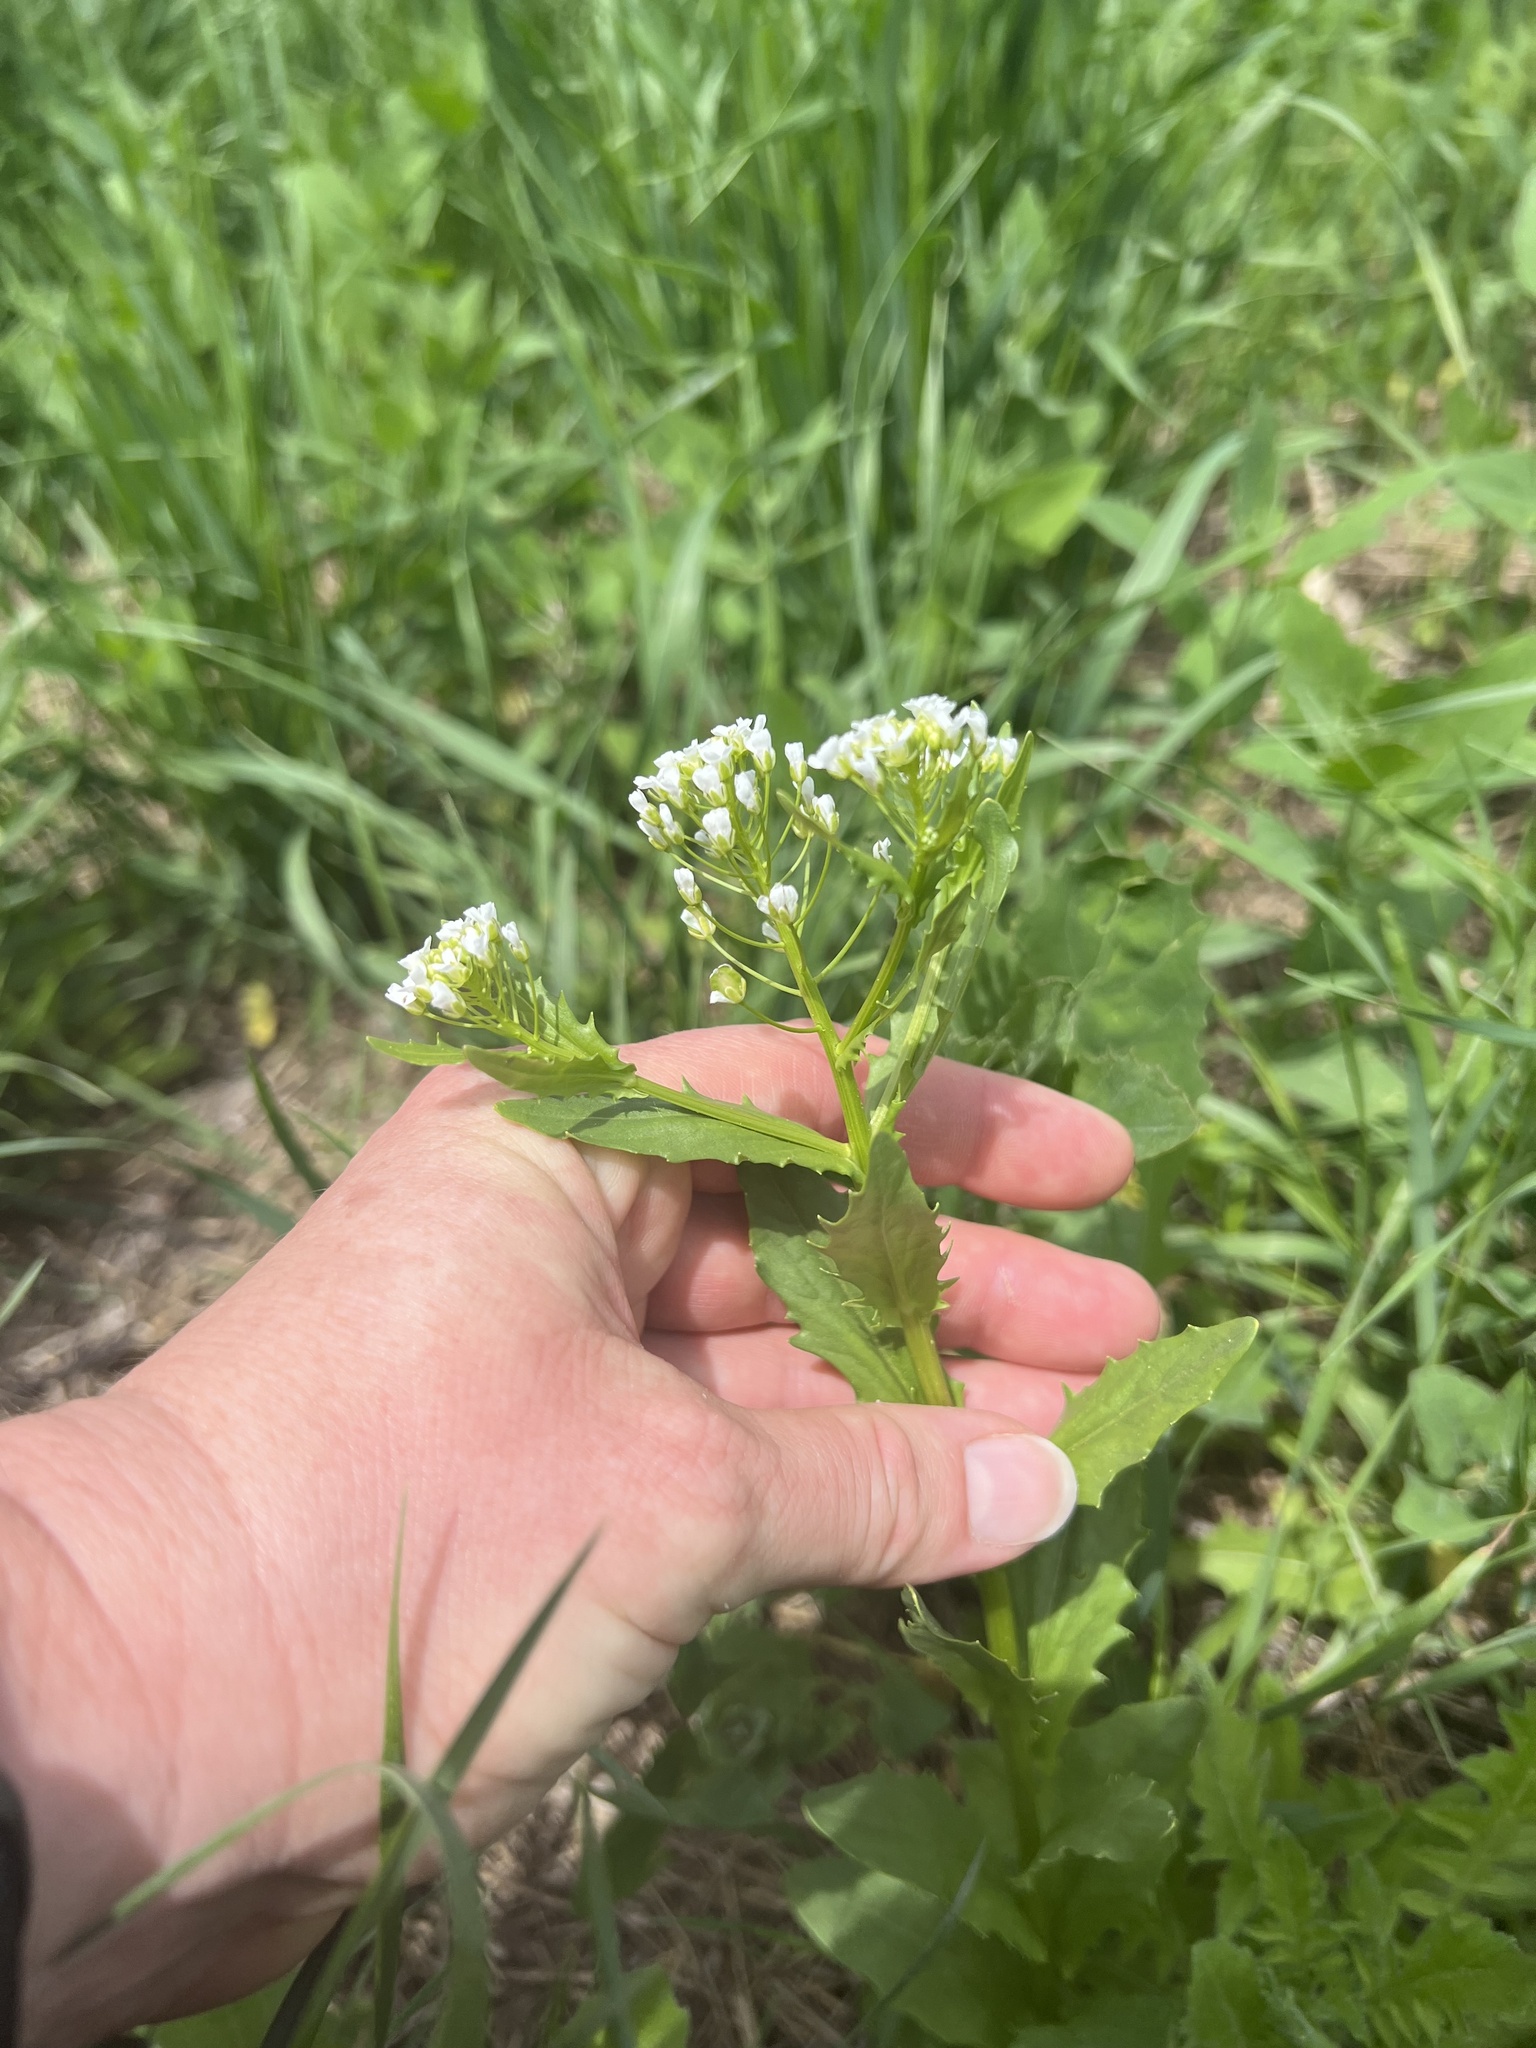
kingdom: Plantae
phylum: Tracheophyta
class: Magnoliopsida
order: Brassicales
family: Brassicaceae
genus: Thlaspi
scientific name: Thlaspi arvense
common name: Field pennycress
